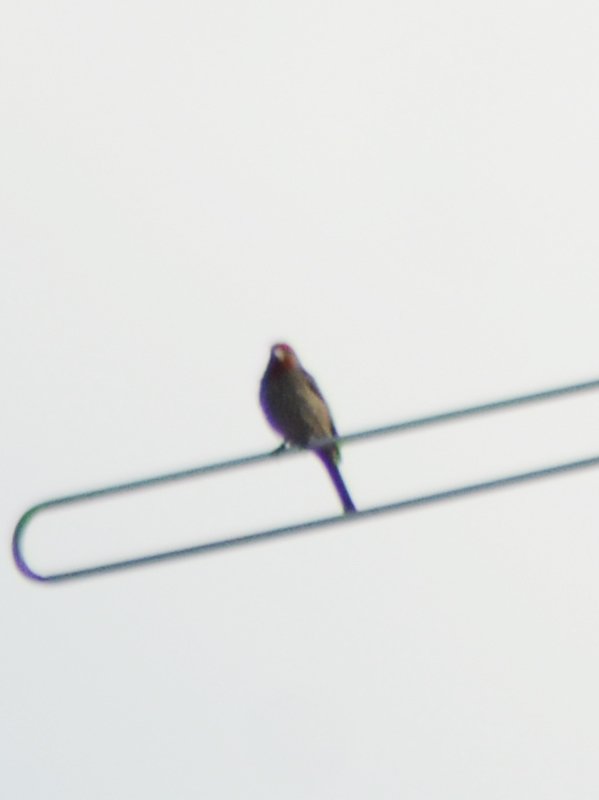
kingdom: Animalia
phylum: Chordata
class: Aves
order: Passeriformes
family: Fringillidae
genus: Haemorhous
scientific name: Haemorhous mexicanus
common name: House finch
